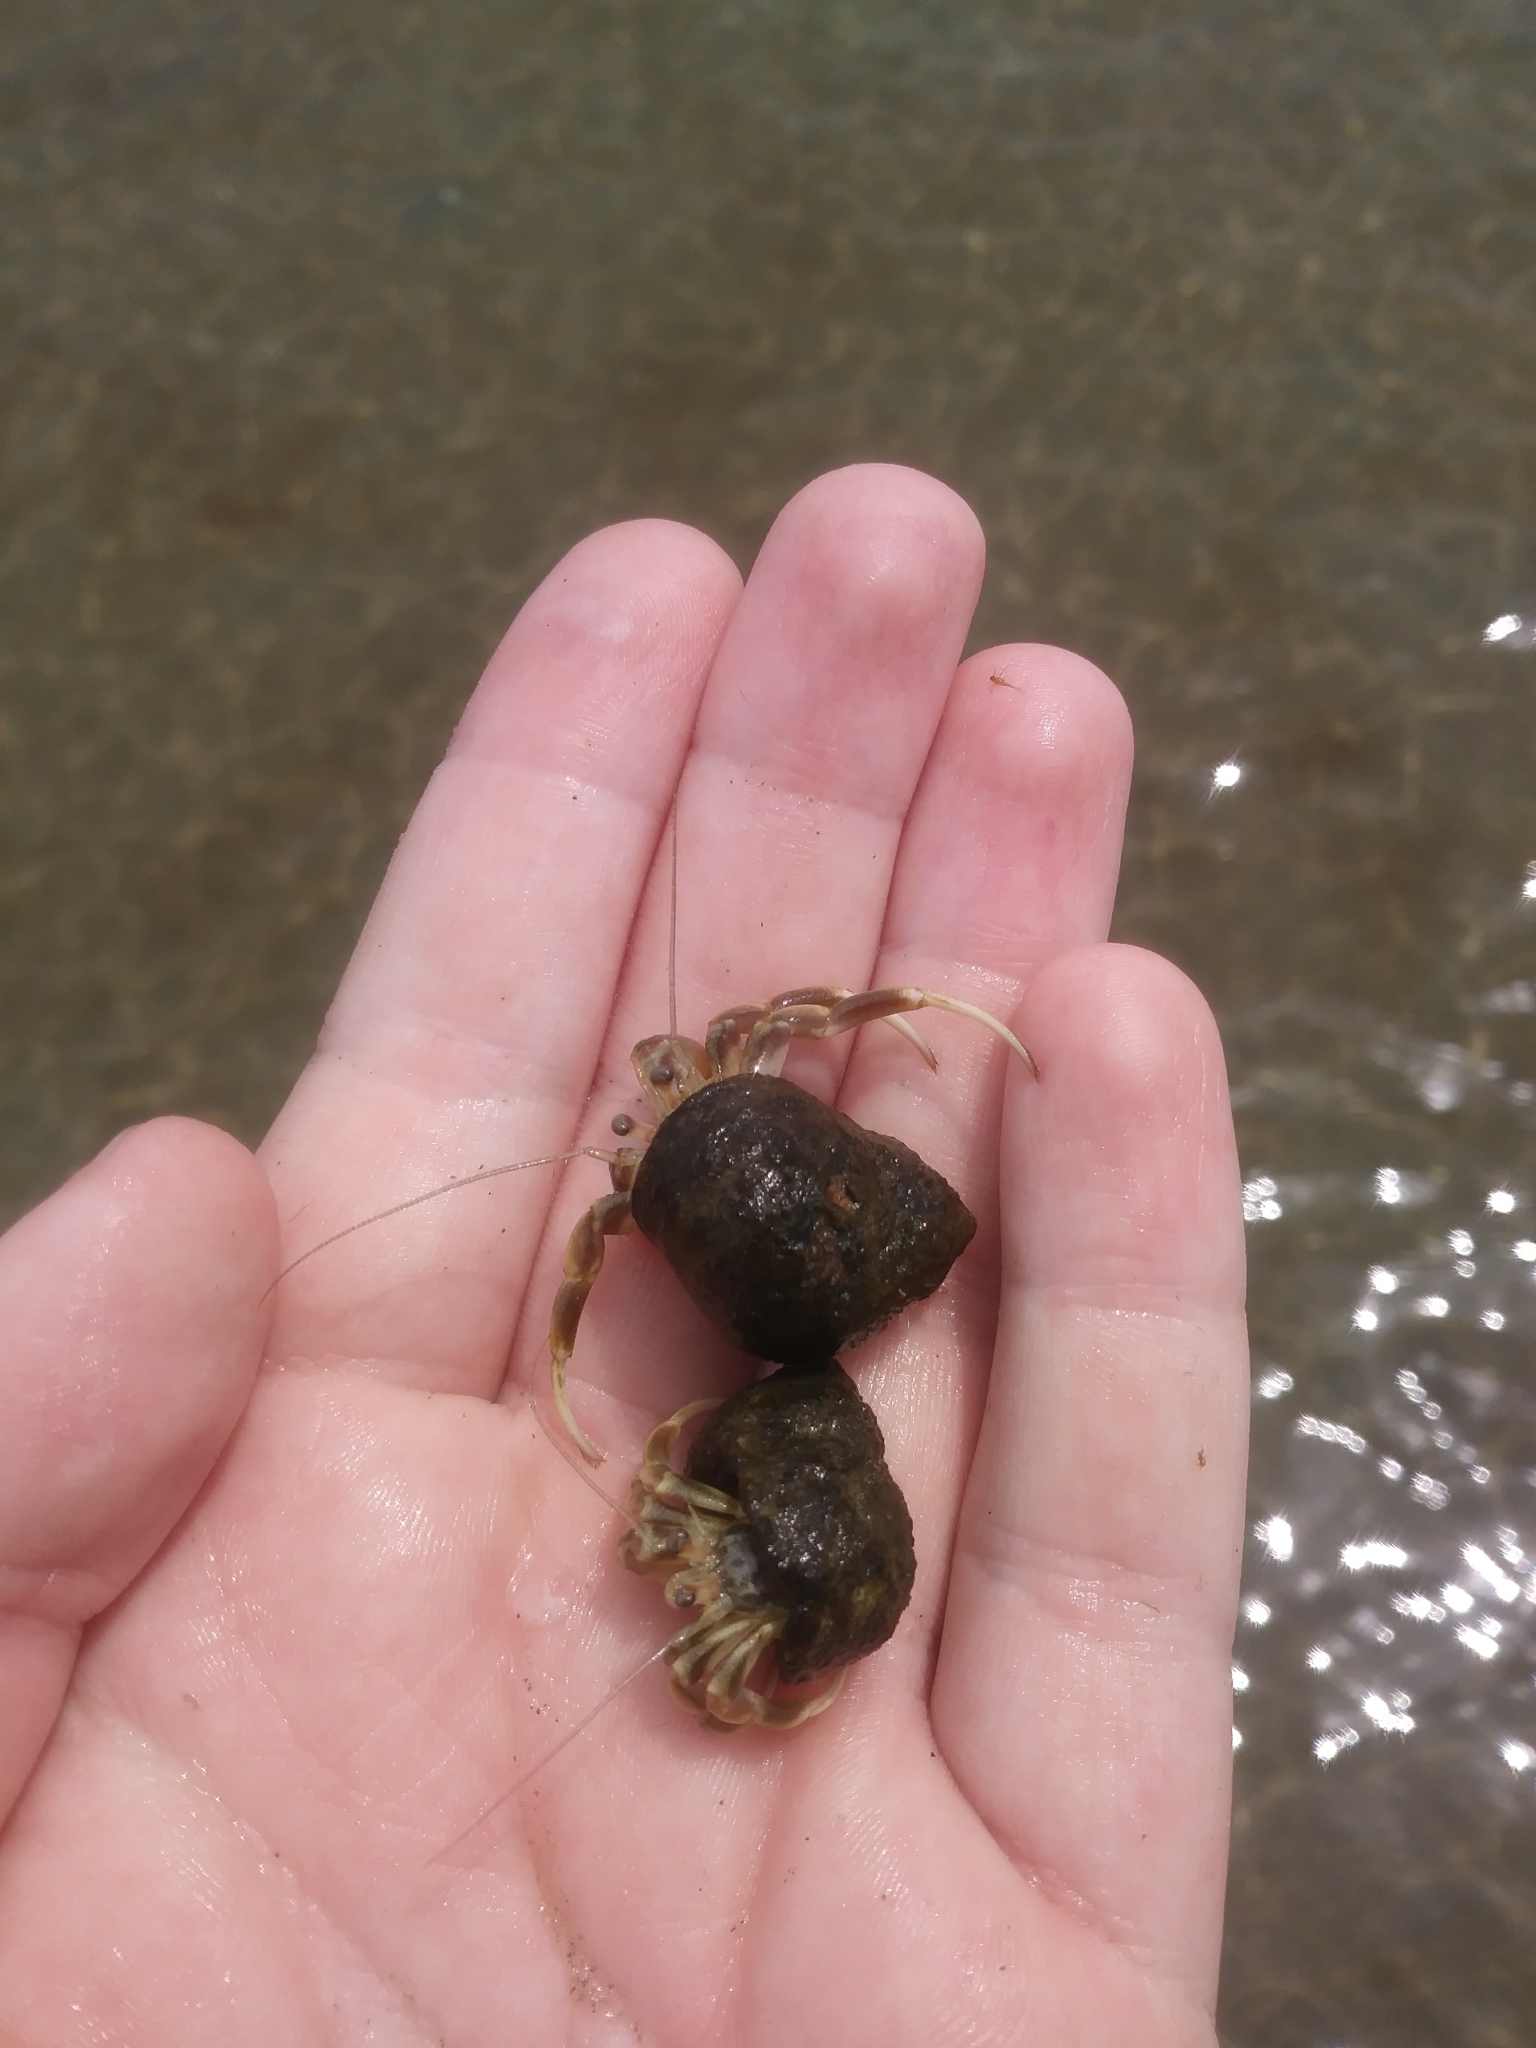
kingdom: Animalia
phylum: Arthropoda
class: Malacostraca
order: Decapoda
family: Paguridae
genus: Pagurus
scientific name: Pagurus longicarpus
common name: Long-armed hermit crab
